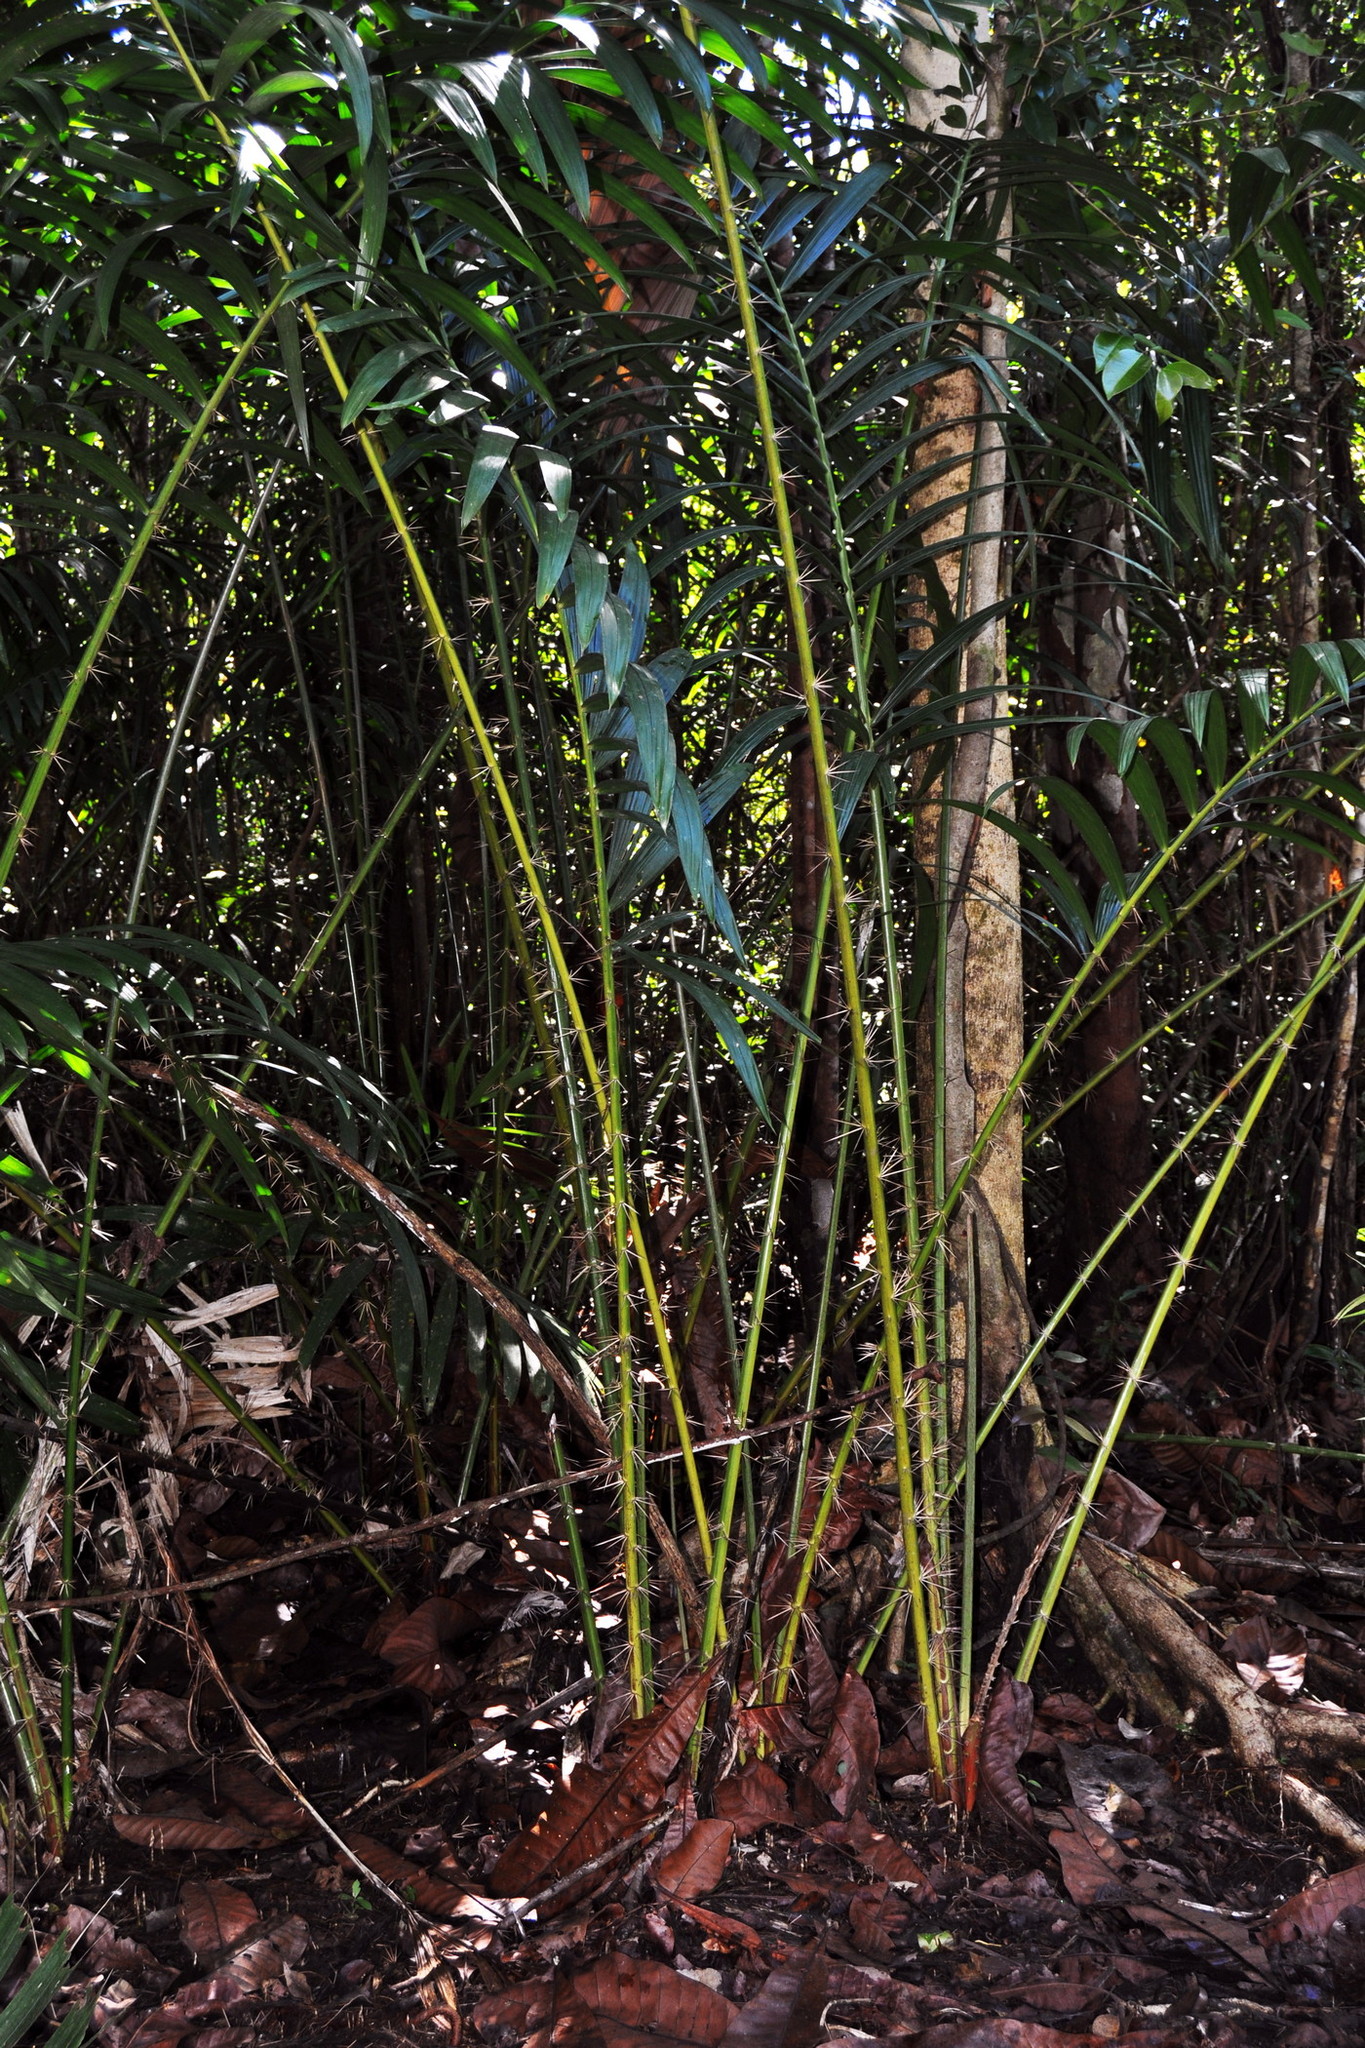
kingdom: Plantae
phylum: Tracheophyta
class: Liliopsida
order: Arecales
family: Arecaceae
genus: Eleiodoxa
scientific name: Eleiodoxa conferta
